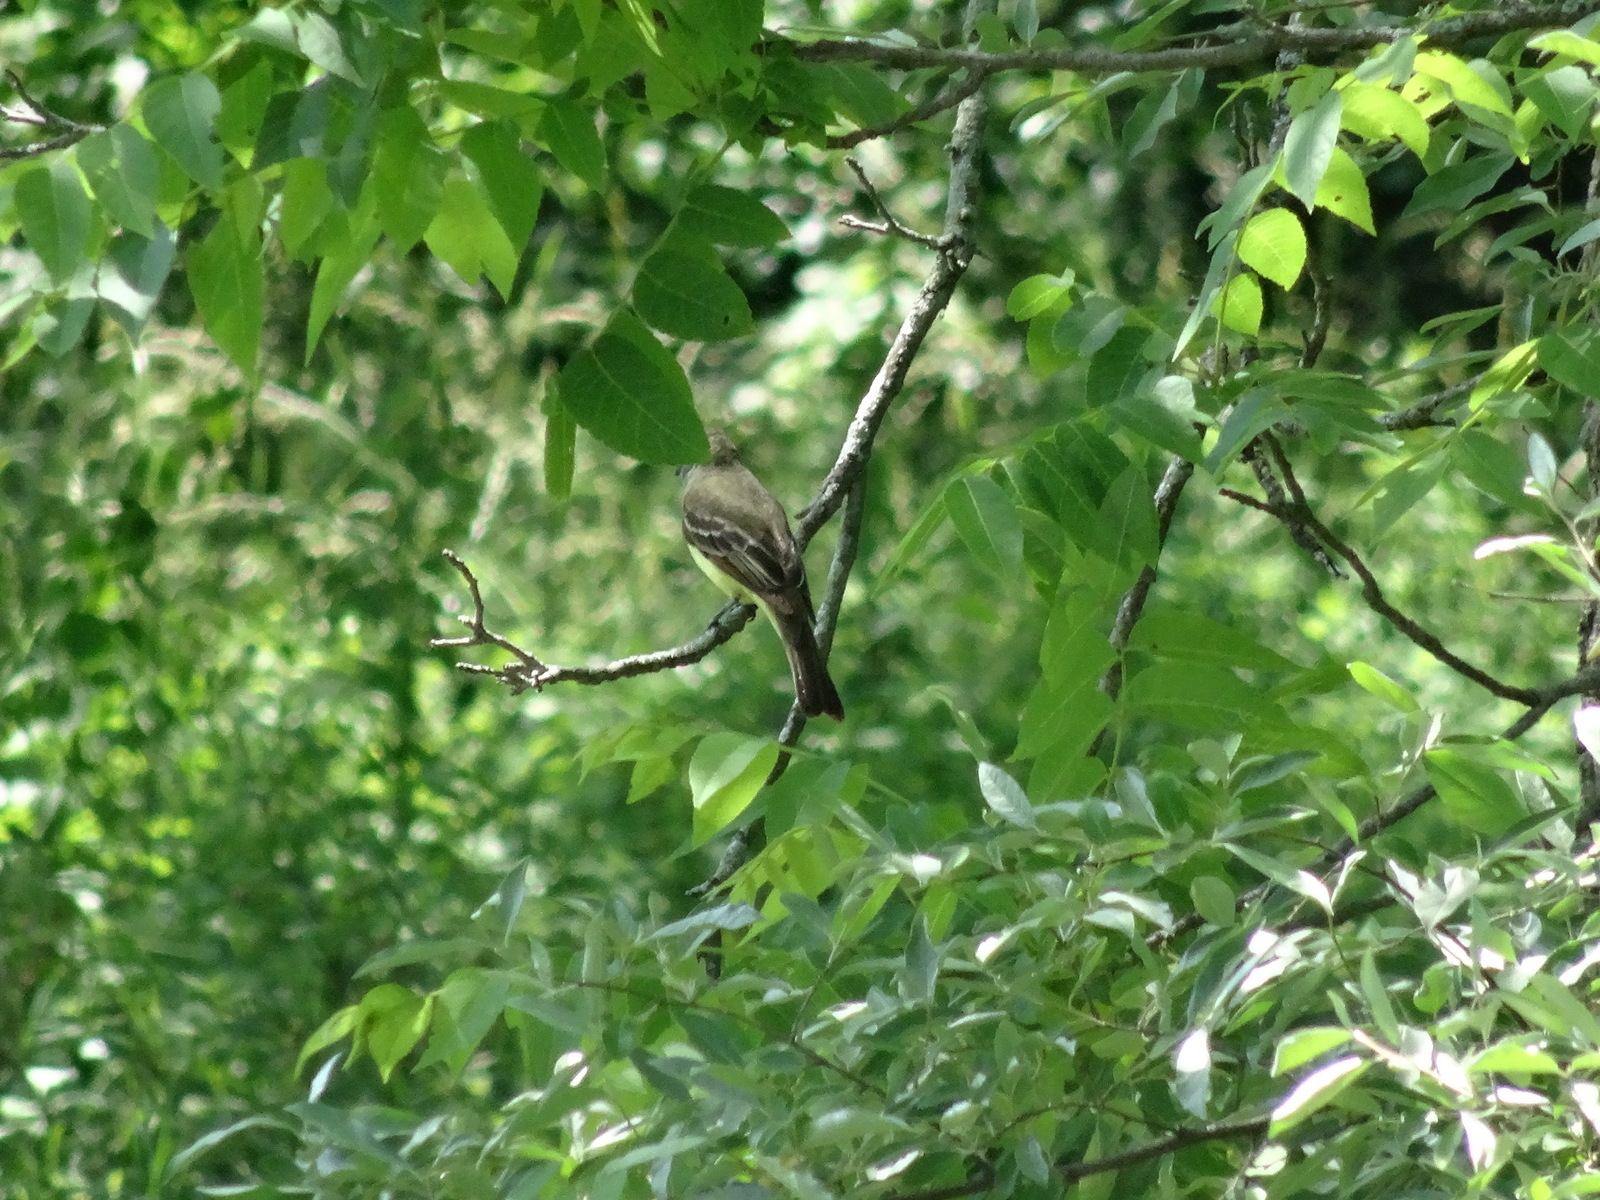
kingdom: Animalia
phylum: Chordata
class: Aves
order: Passeriformes
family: Tyrannidae
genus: Myiarchus
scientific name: Myiarchus crinitus
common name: Great crested flycatcher
